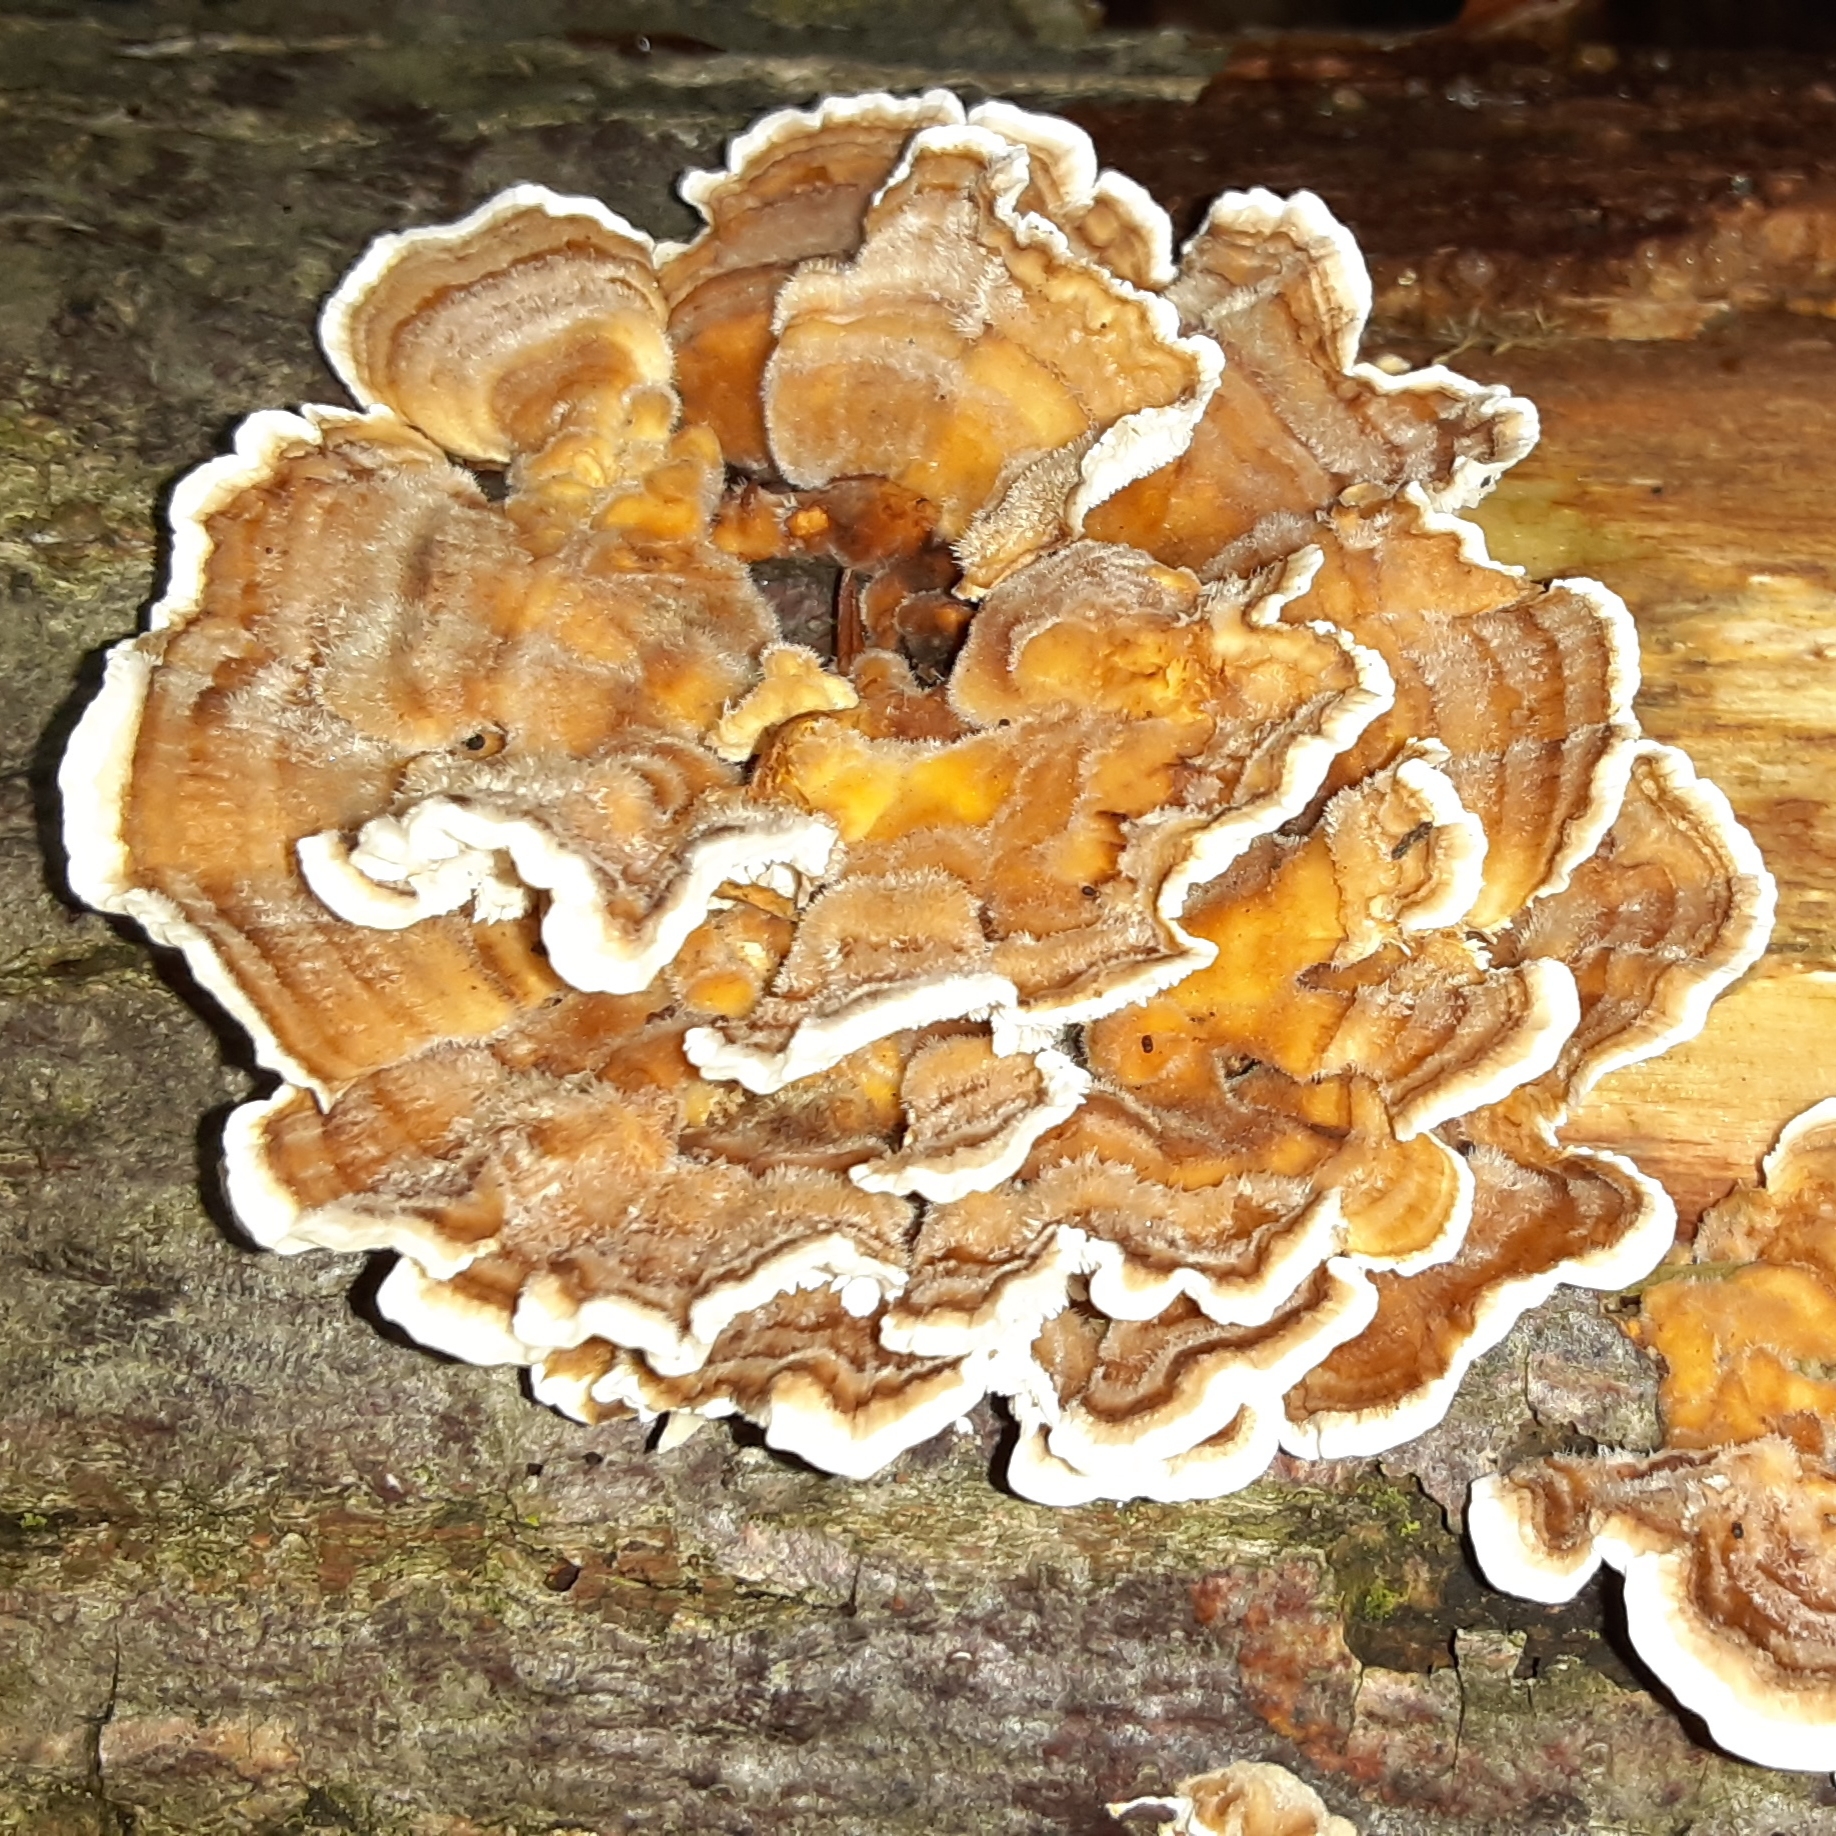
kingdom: Fungi
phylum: Basidiomycota
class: Agaricomycetes
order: Polyporales
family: Polyporaceae
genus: Trametes
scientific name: Trametes versicolor
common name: Turkeytail
